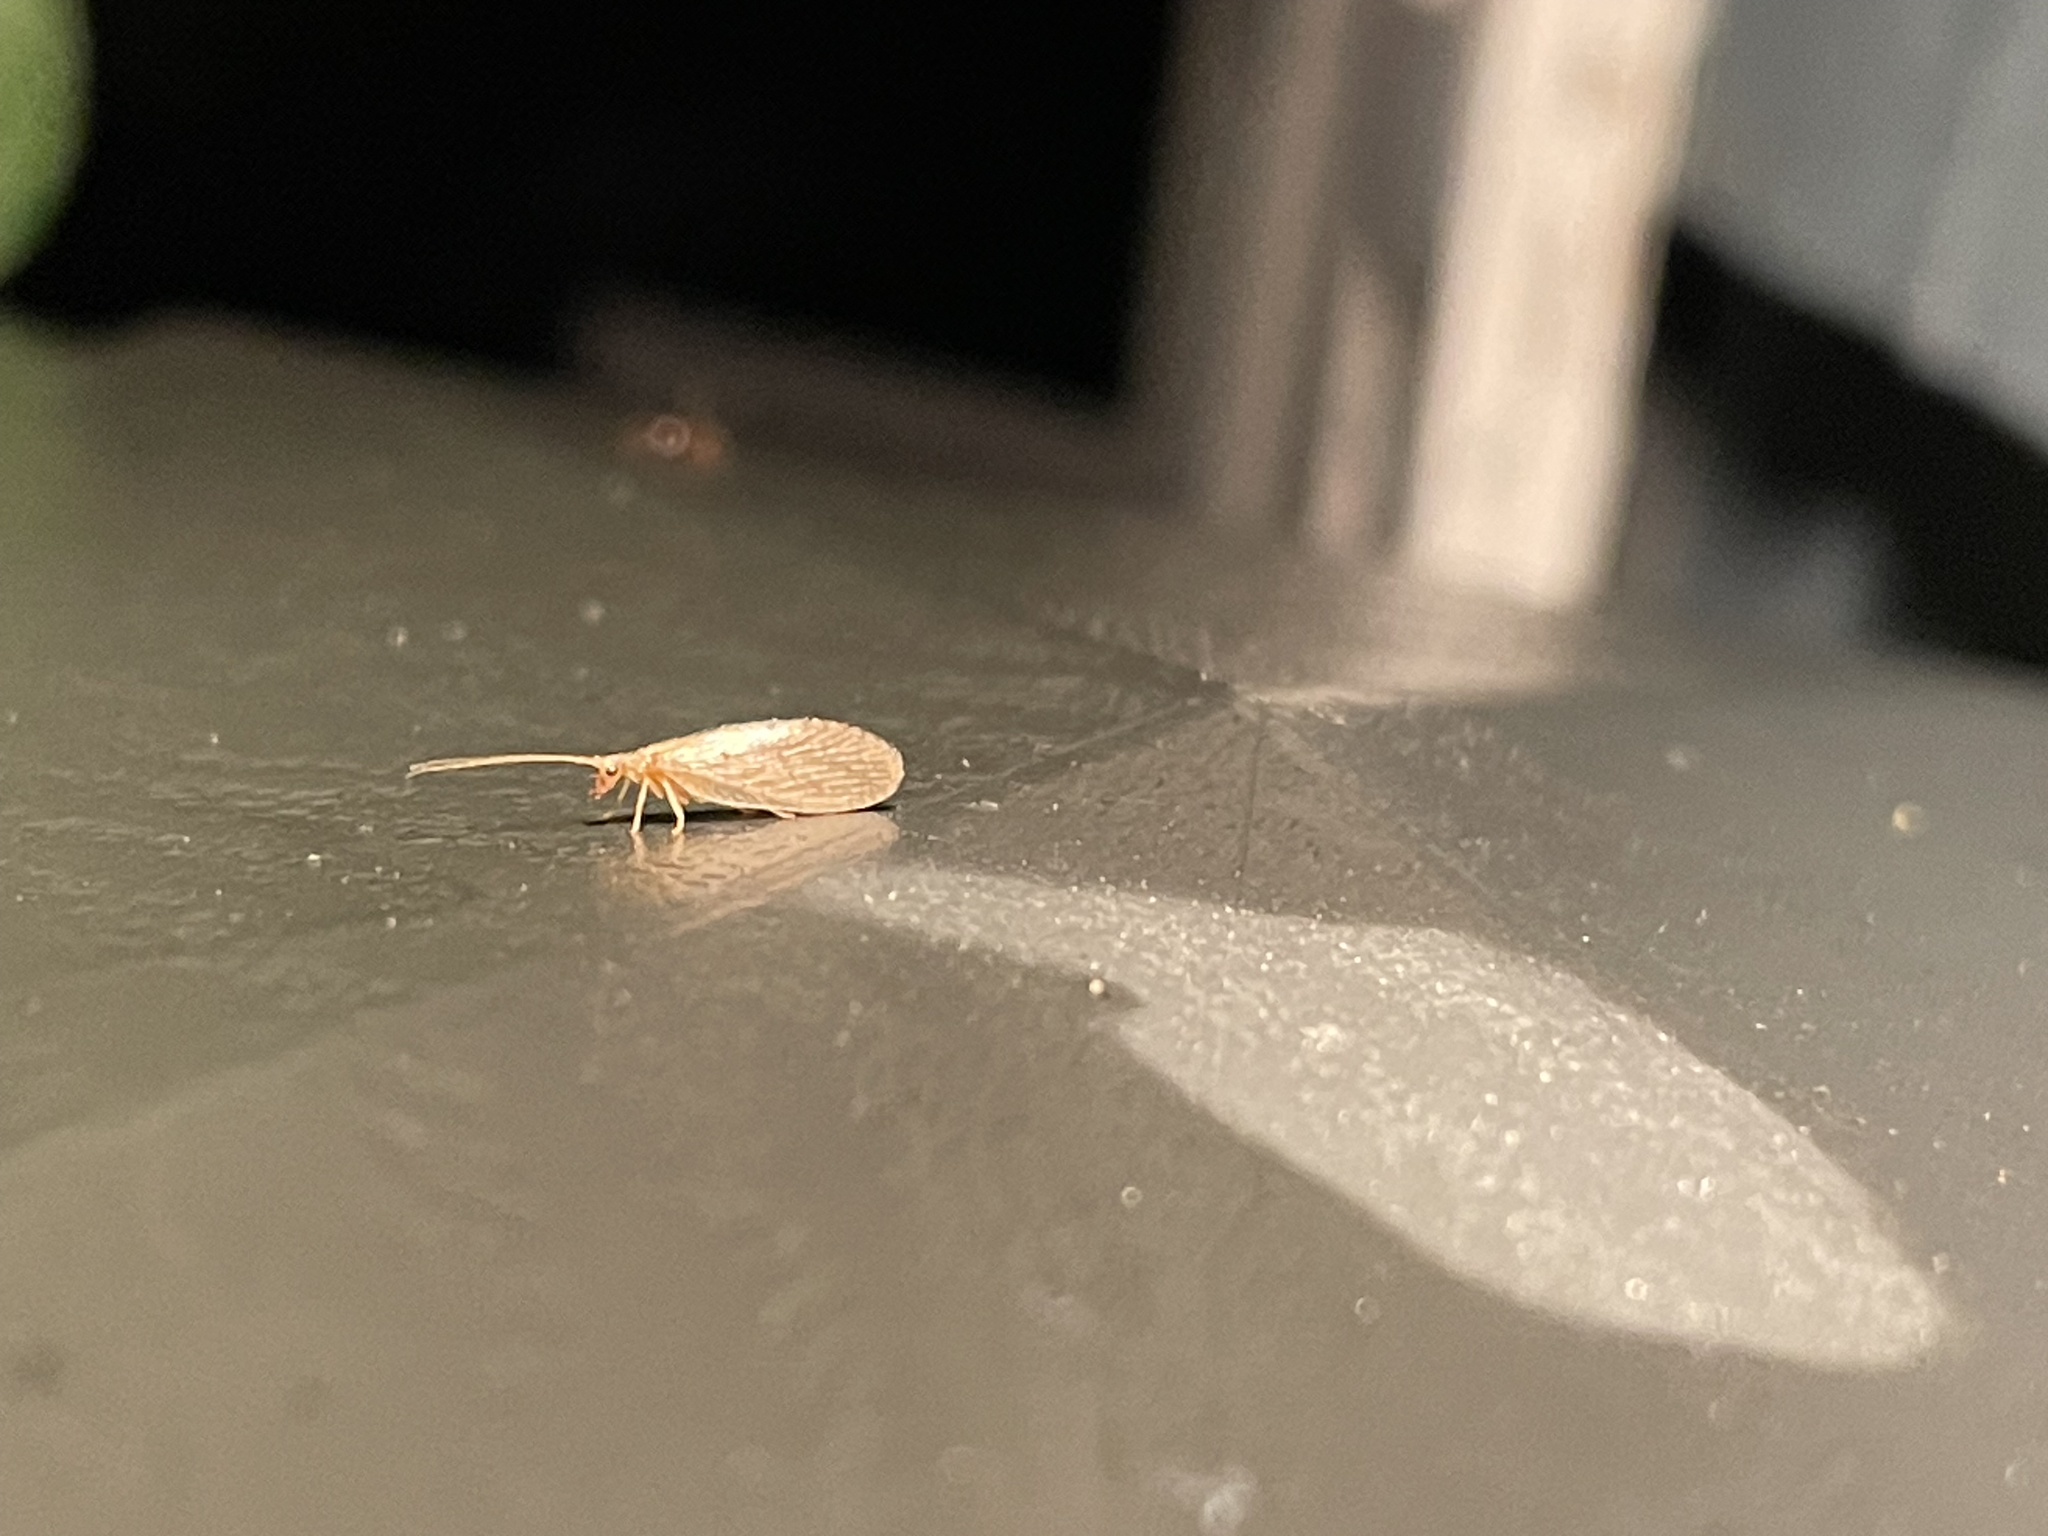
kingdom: Animalia
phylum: Arthropoda
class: Insecta
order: Neuroptera
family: Hemerobiidae
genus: Micromus
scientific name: Micromus subanticus
